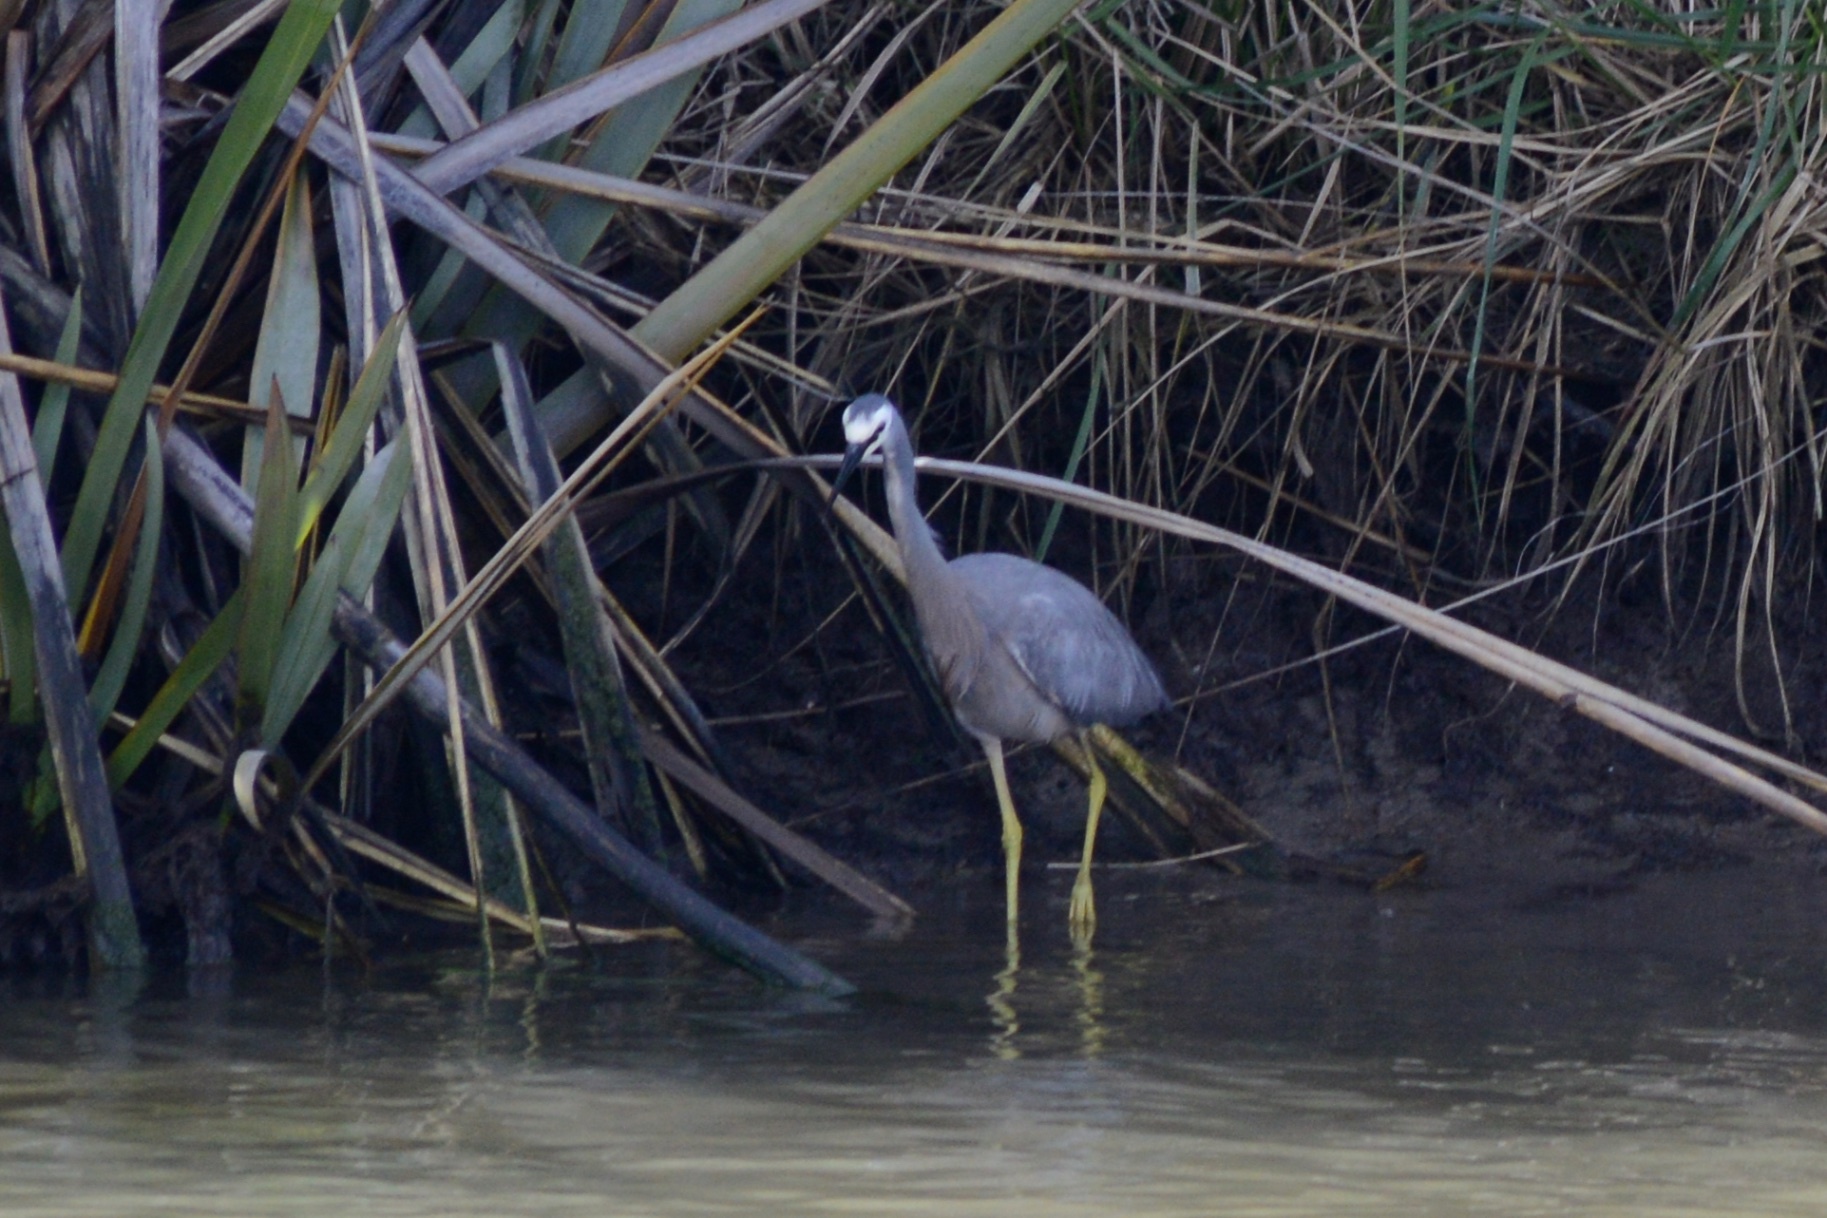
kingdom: Animalia
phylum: Chordata
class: Aves
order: Pelecaniformes
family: Ardeidae
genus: Egretta
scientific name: Egretta novaehollandiae
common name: White-faced heron
